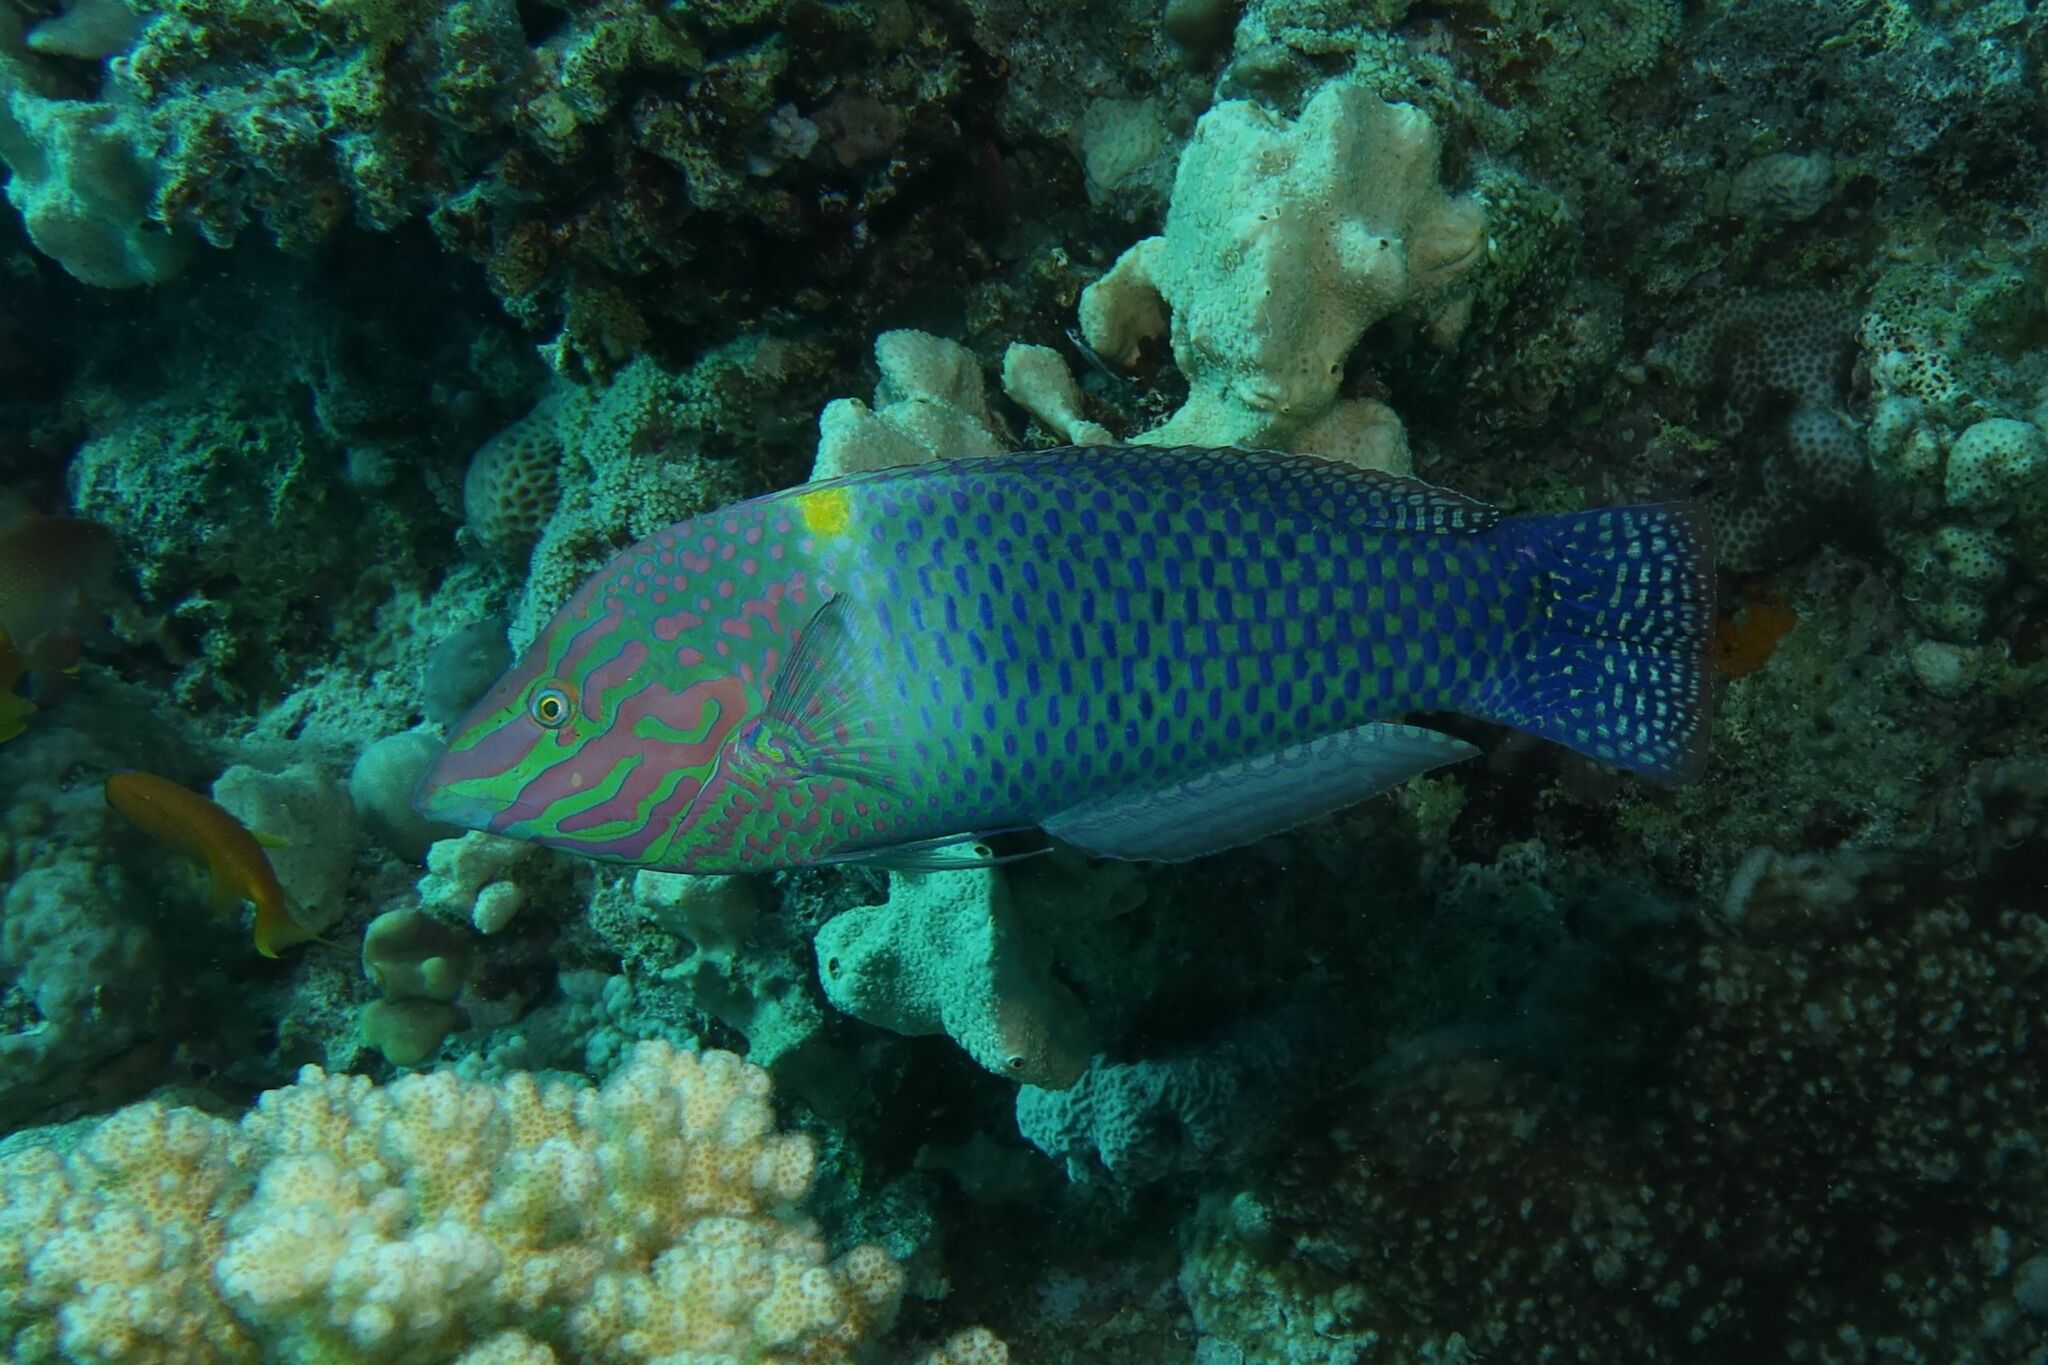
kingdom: Animalia
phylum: Chordata
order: Perciformes
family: Labridae
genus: Halichoeres
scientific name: Halichoeres hortulanus
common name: Checkerboard wrasse
